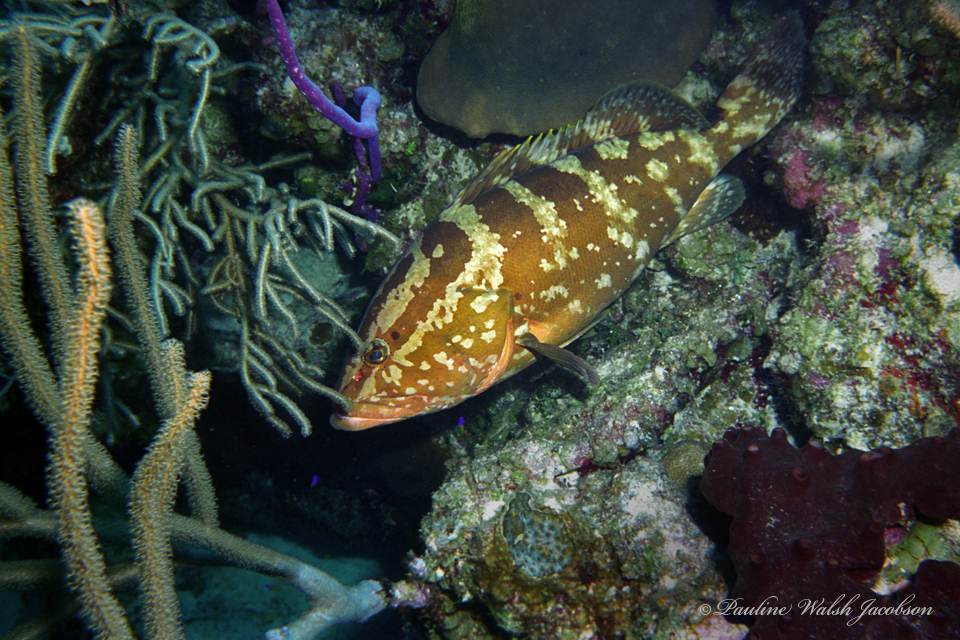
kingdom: Animalia
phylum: Chordata
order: Perciformes
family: Serranidae
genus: Epinephelus
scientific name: Epinephelus striatus
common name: Nassau grouper
